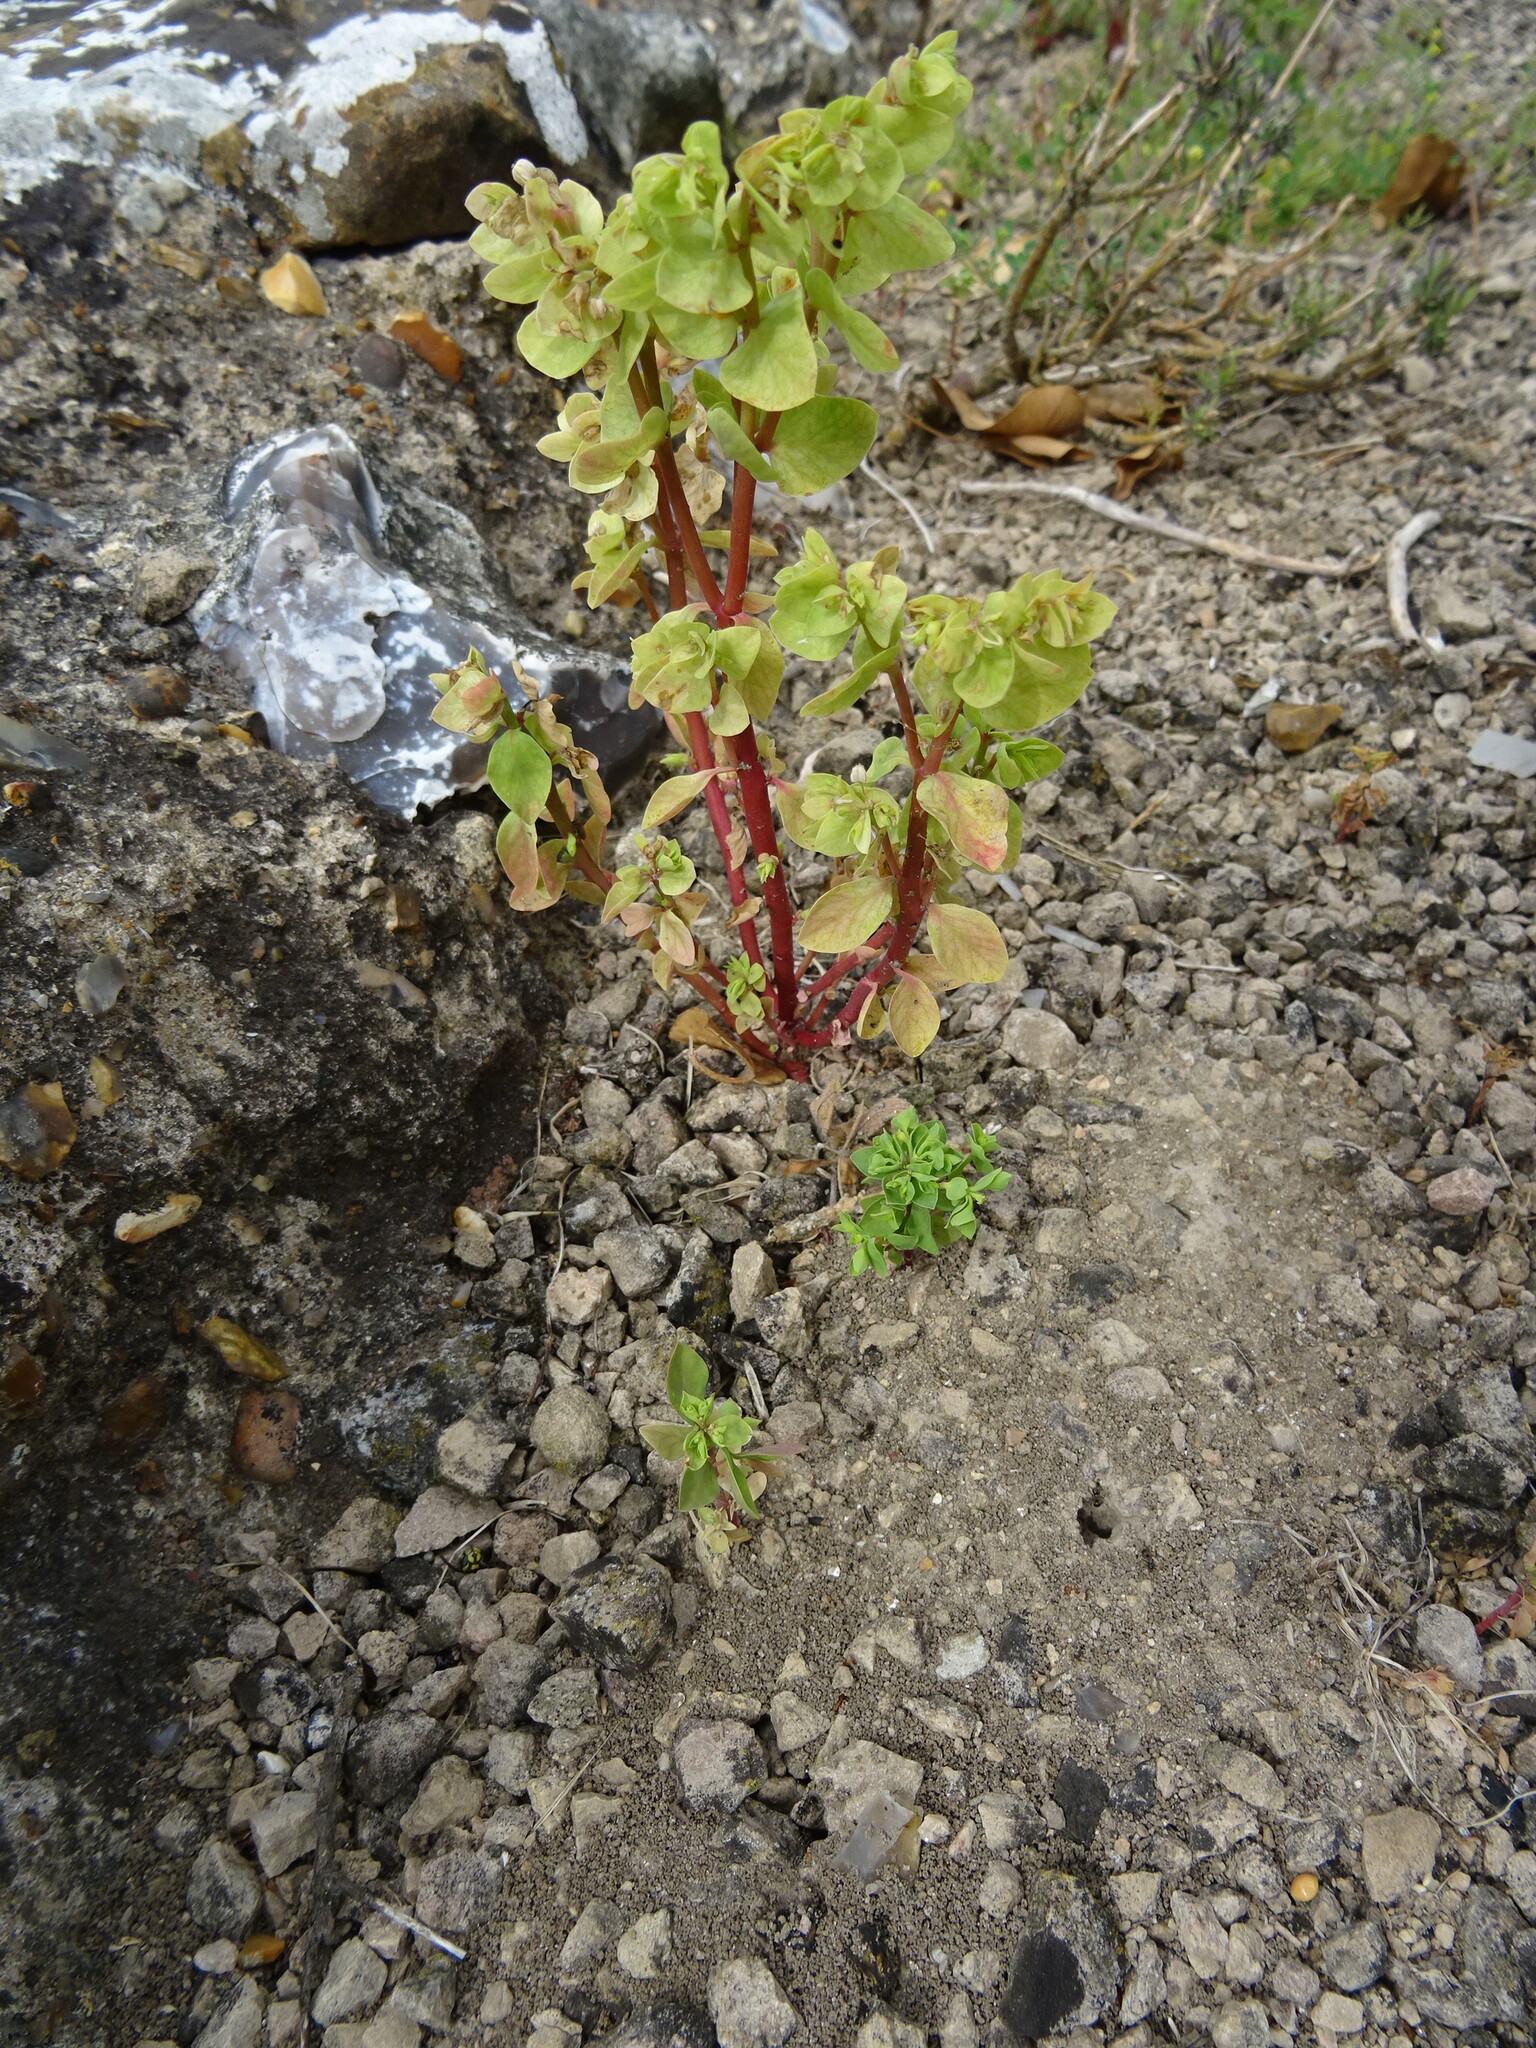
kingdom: Plantae
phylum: Tracheophyta
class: Magnoliopsida
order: Malpighiales
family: Euphorbiaceae
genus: Euphorbia
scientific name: Euphorbia peplus
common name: Petty spurge
